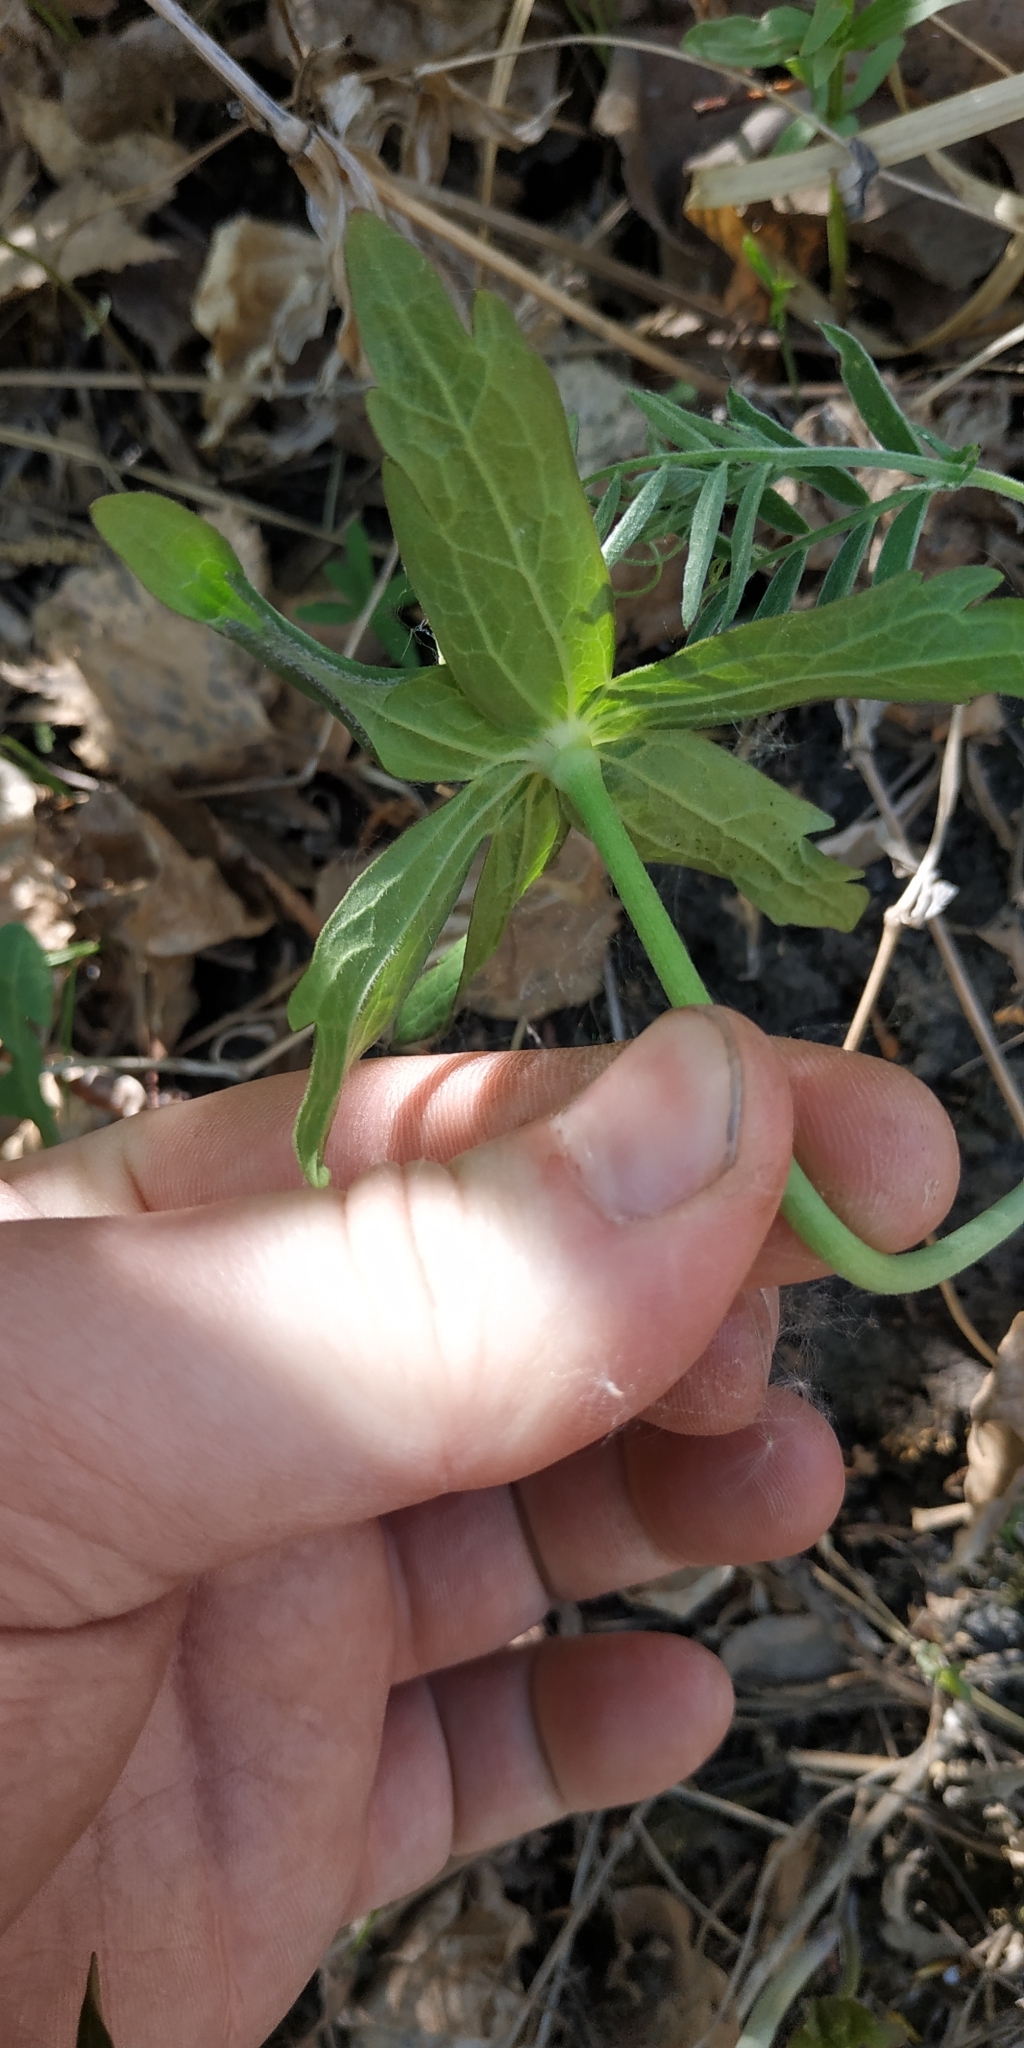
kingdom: Plantae
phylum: Tracheophyta
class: Magnoliopsida
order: Ranunculales
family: Ranunculaceae
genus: Anemonastrum
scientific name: Anemonastrum dichotomum
